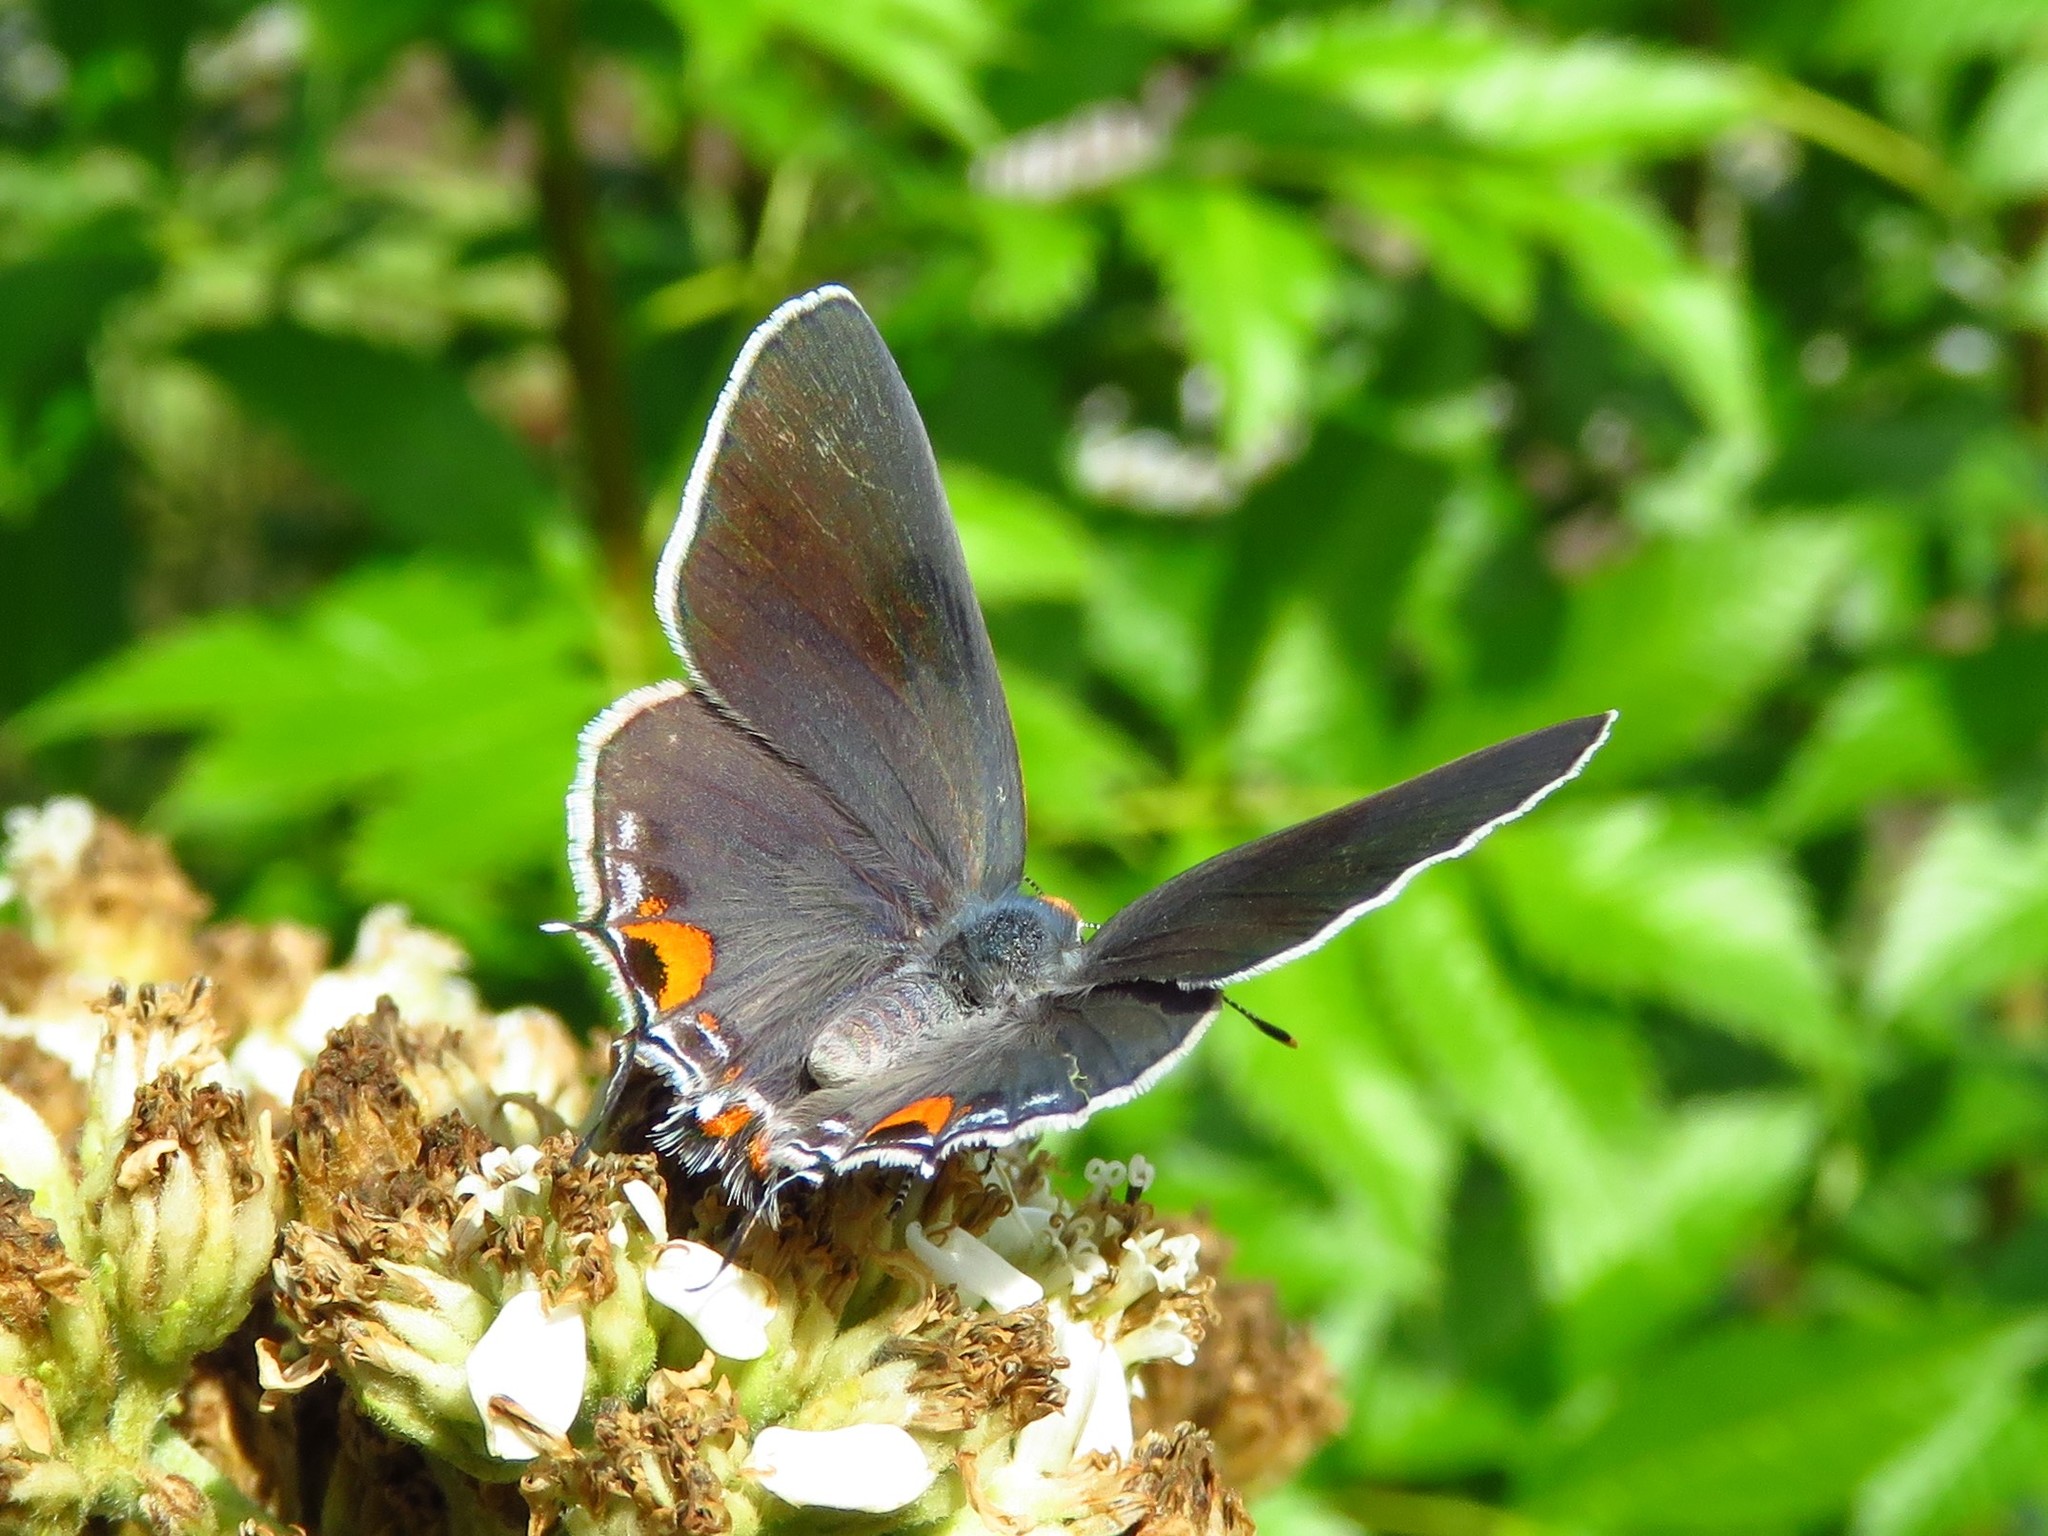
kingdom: Animalia
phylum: Arthropoda
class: Insecta
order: Lepidoptera
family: Lycaenidae
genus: Strymon
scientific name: Strymon melinus
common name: Gray hairstreak
